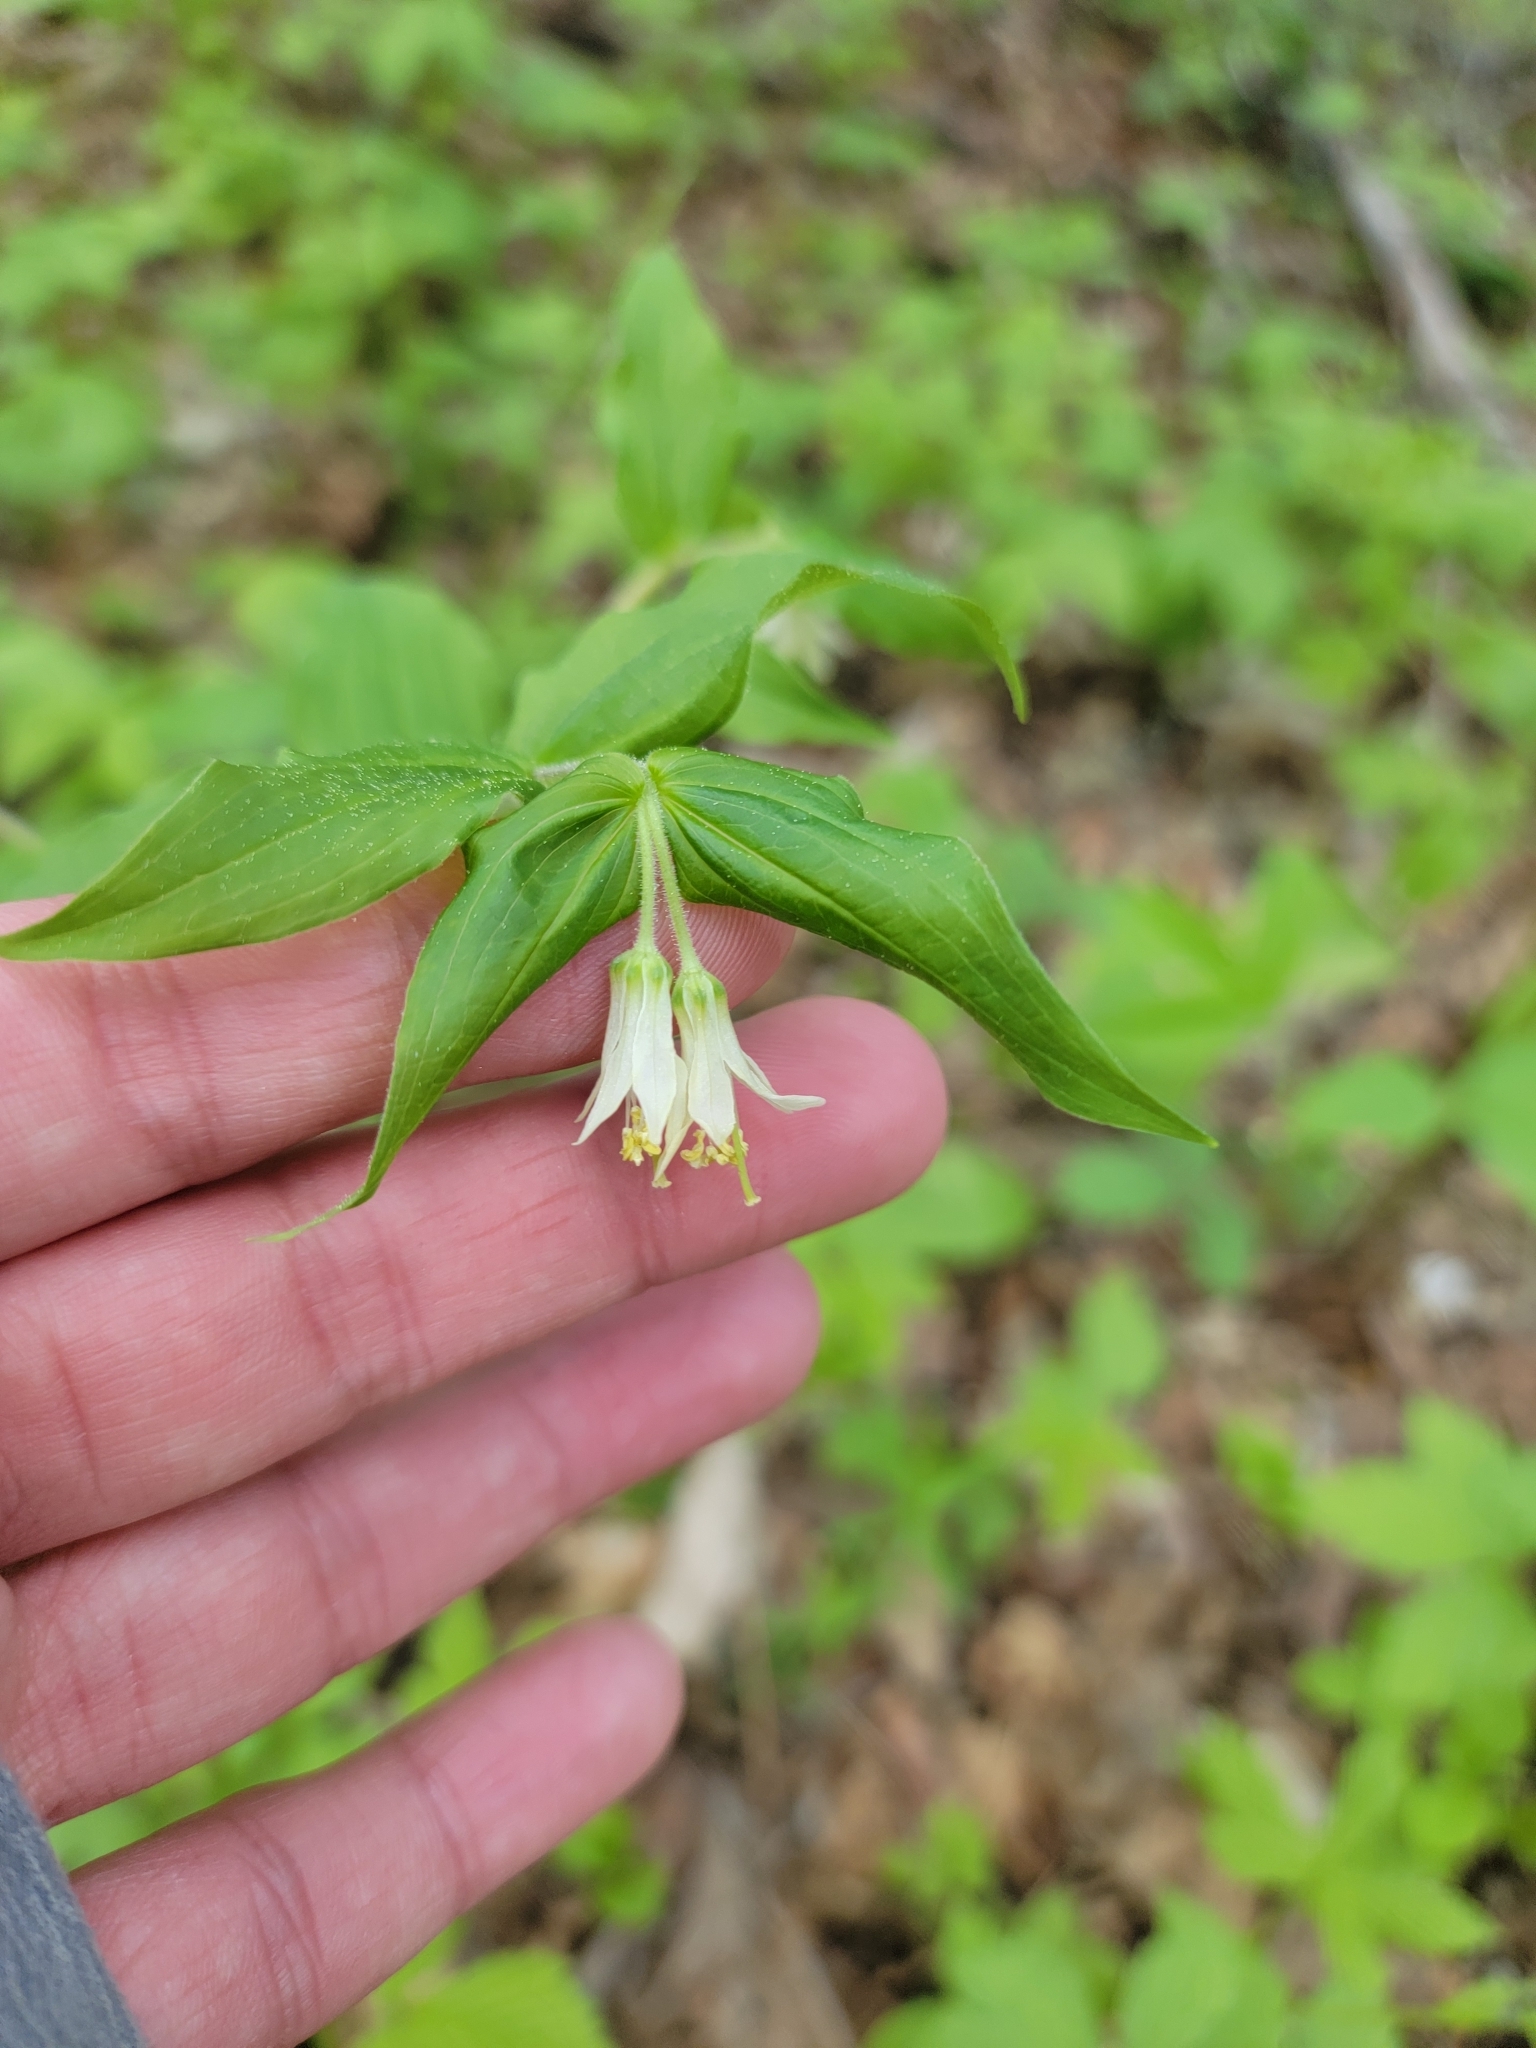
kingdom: Plantae
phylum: Tracheophyta
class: Liliopsida
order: Liliales
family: Liliaceae
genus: Prosartes
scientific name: Prosartes trachycarpa
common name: Rough-fruit fairy-bells
